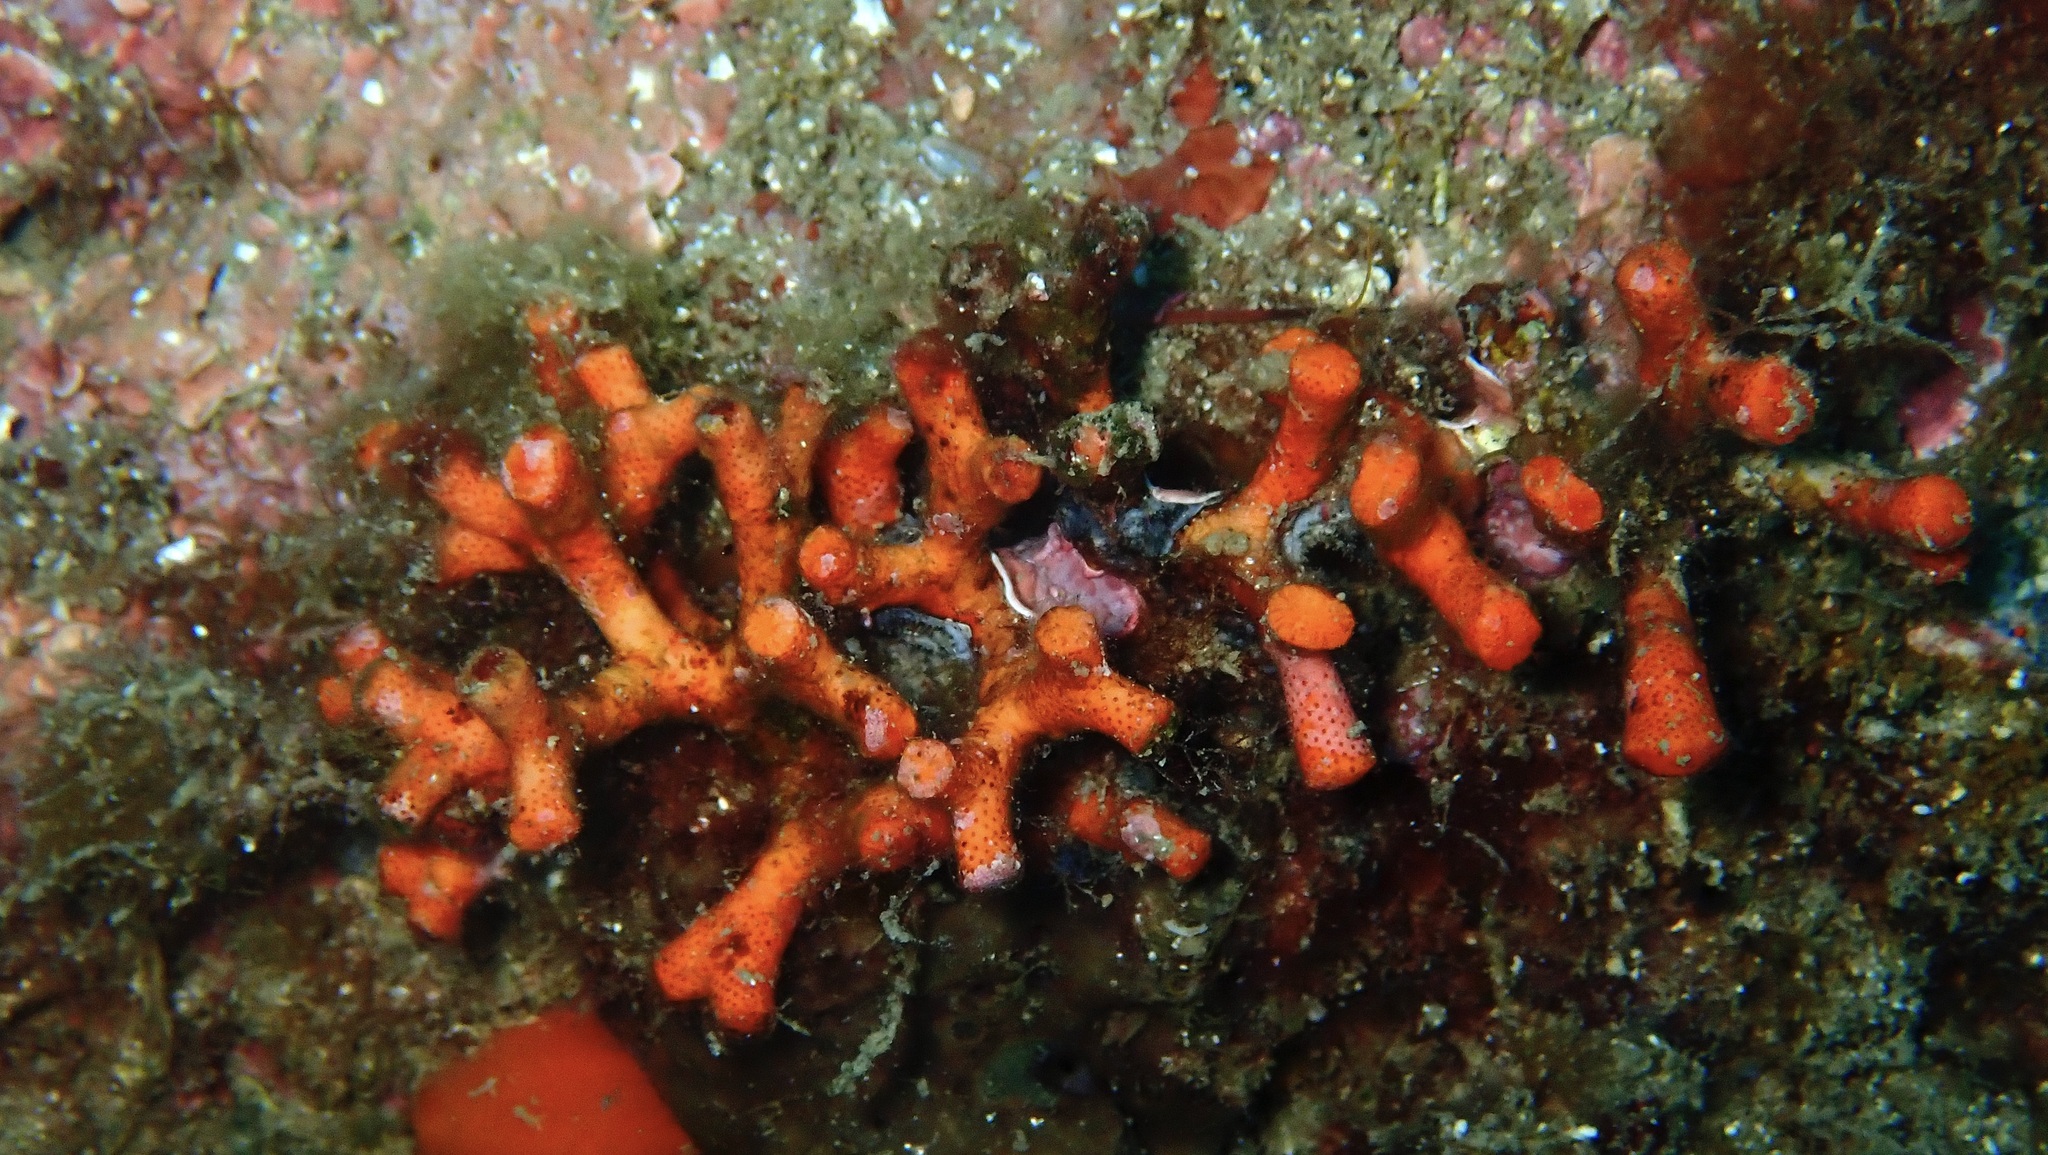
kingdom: Animalia
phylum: Bryozoa
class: Gymnolaemata
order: Cheilostomatida
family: Myriaporidae
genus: Myriapora
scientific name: Myriapora truncata
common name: False coral
